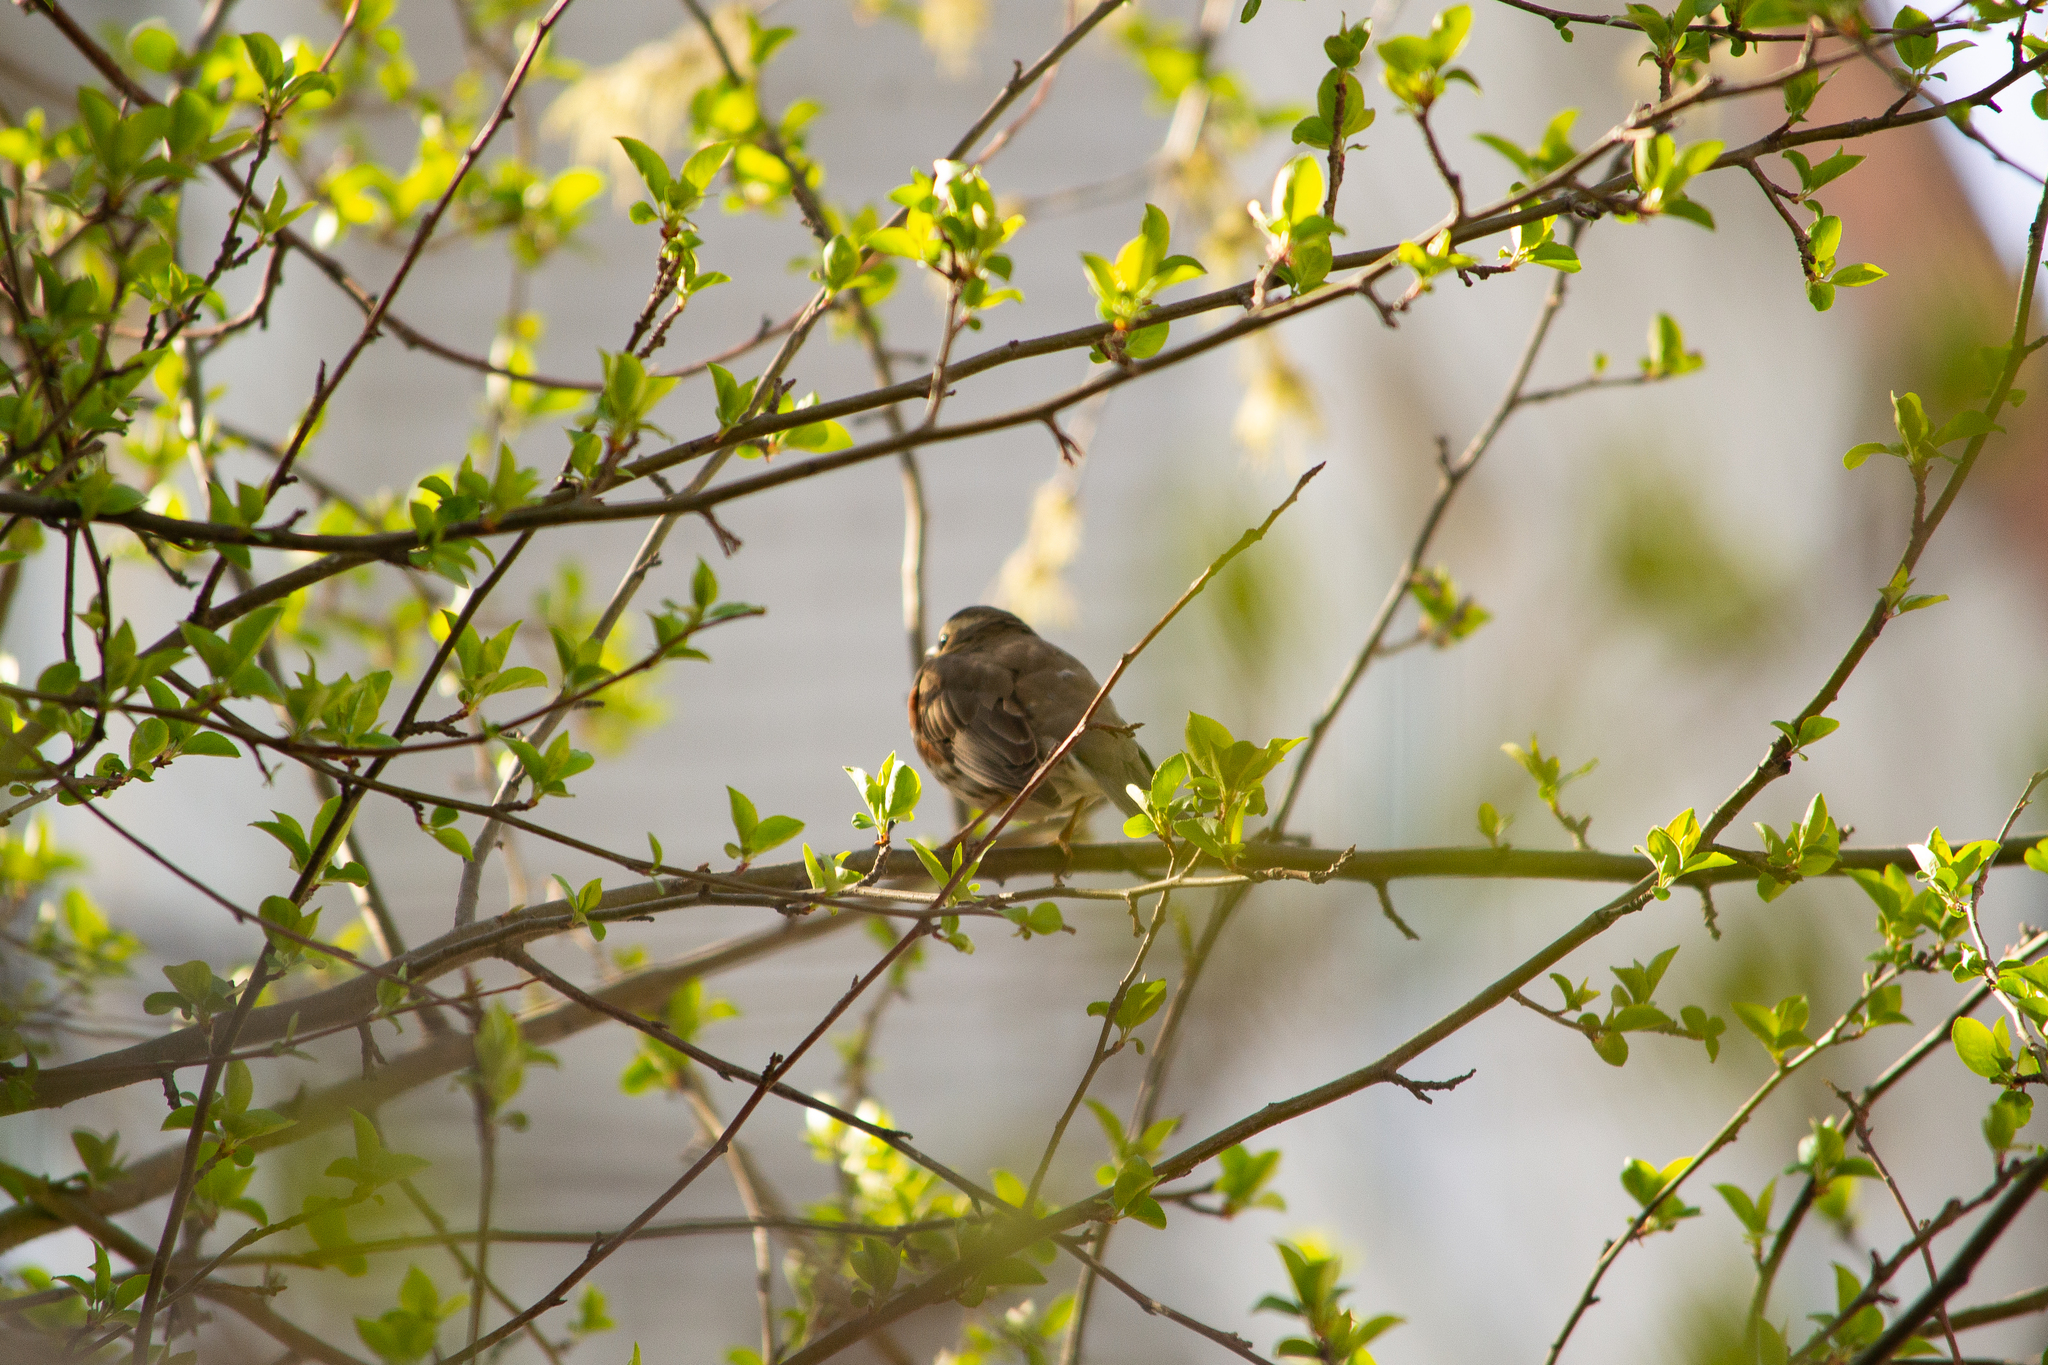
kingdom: Animalia
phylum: Chordata
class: Aves
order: Passeriformes
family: Turdidae
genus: Turdus
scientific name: Turdus iliacus
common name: Redwing
